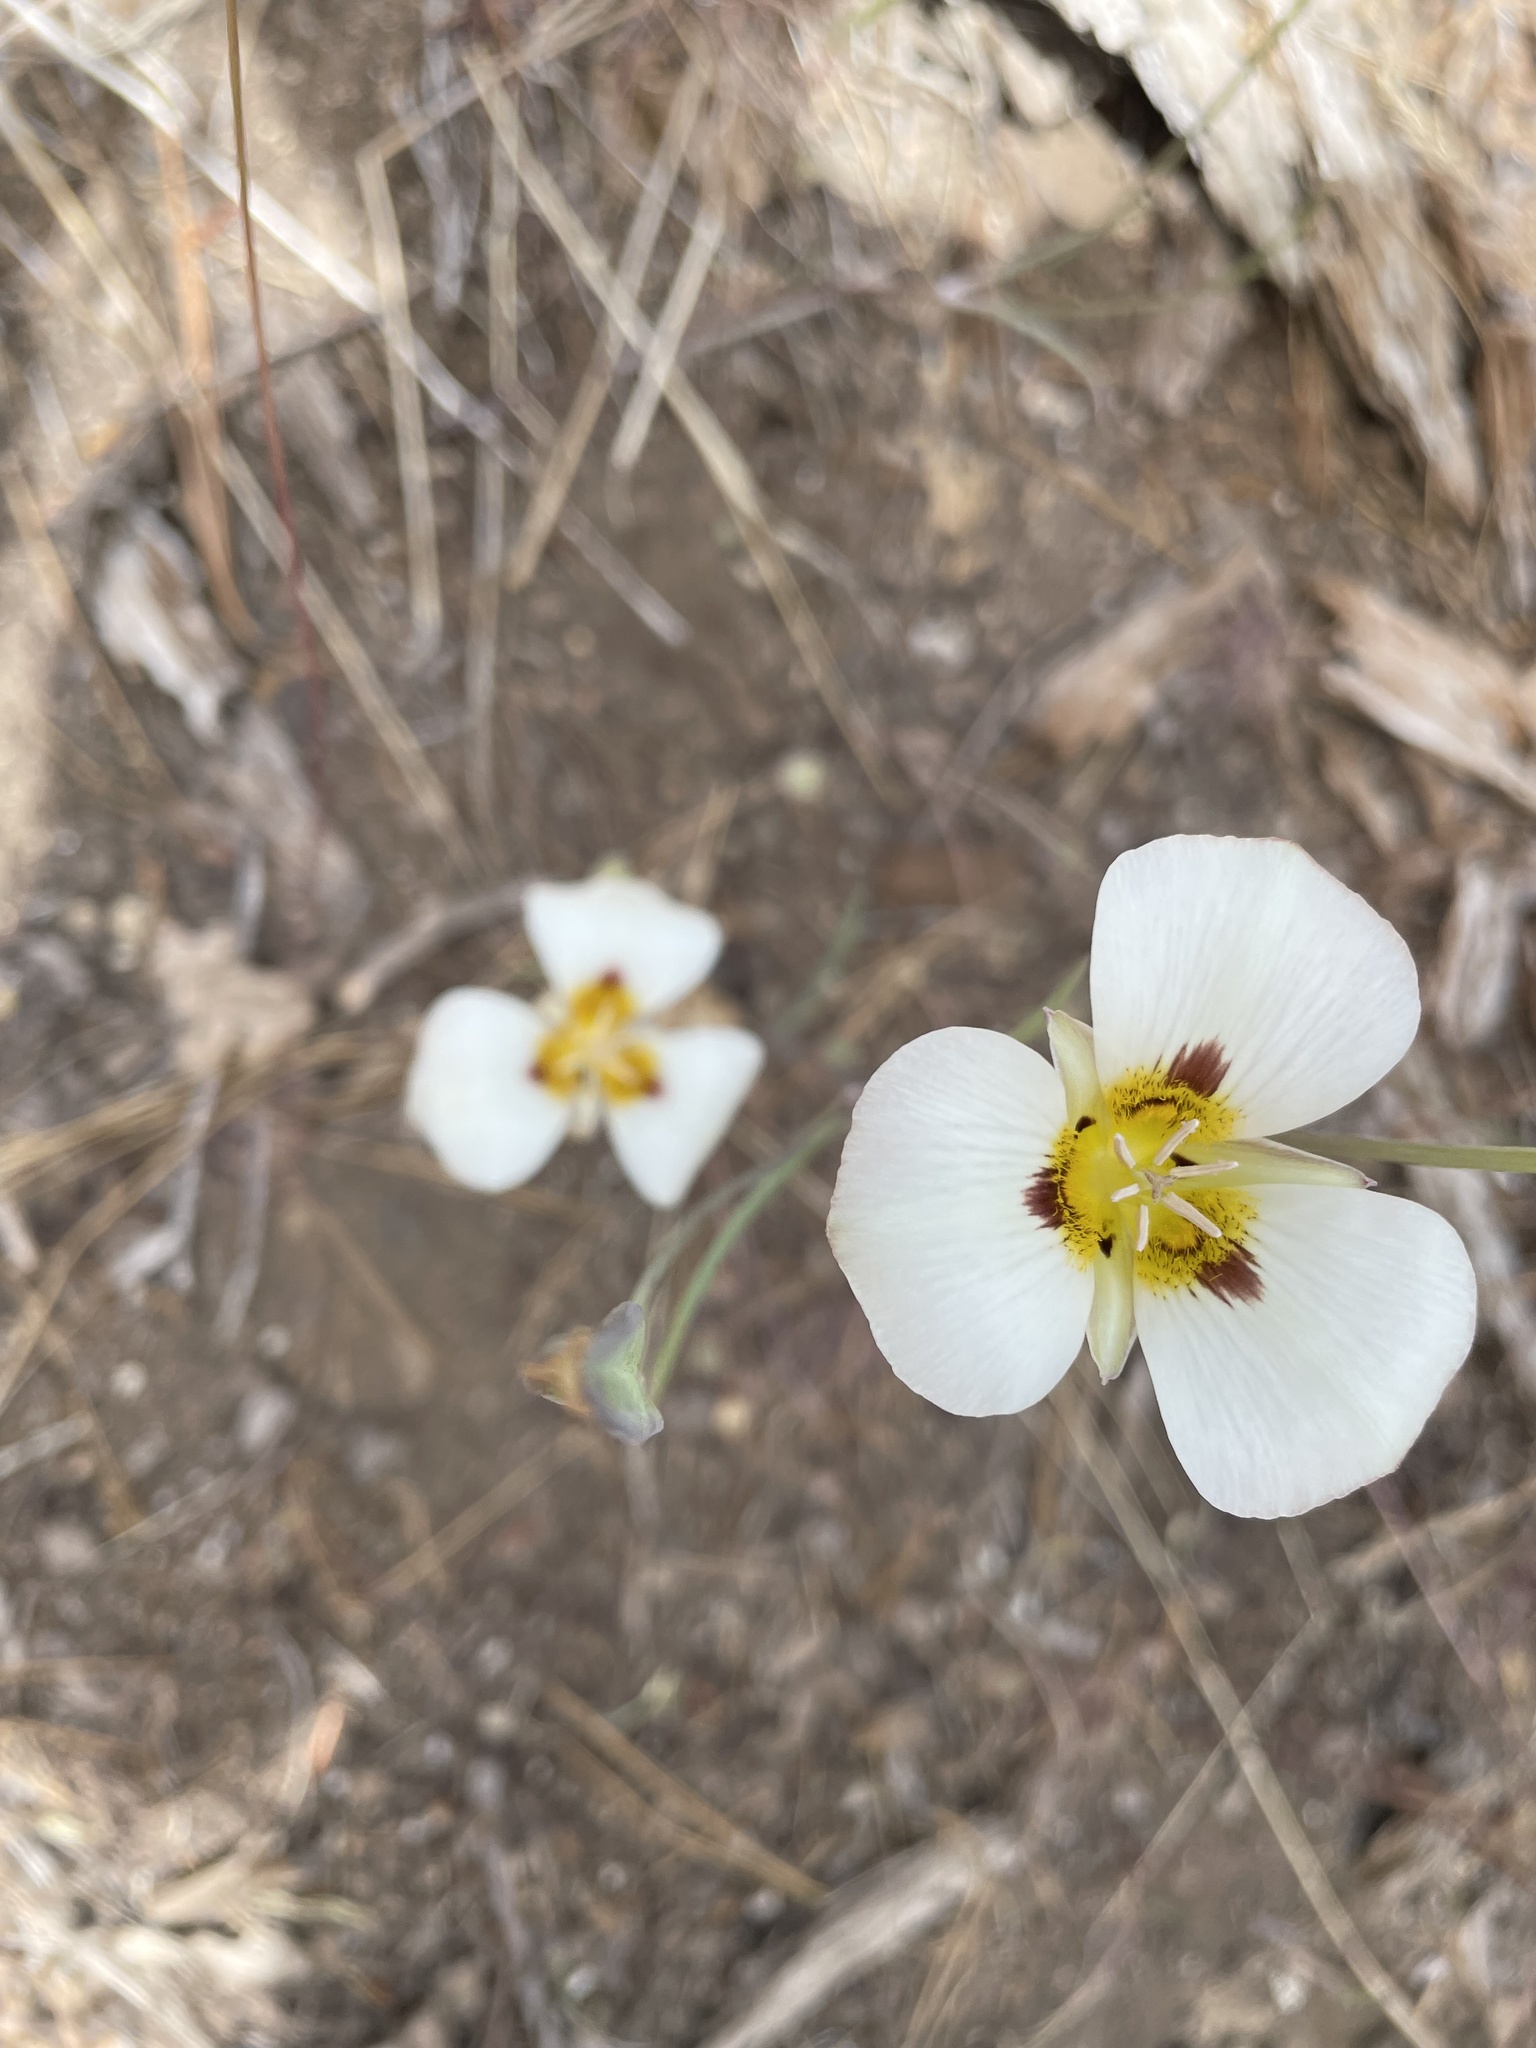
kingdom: Plantae
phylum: Tracheophyta
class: Liliopsida
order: Liliales
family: Liliaceae
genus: Calochortus
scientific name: Calochortus leichtlinii
